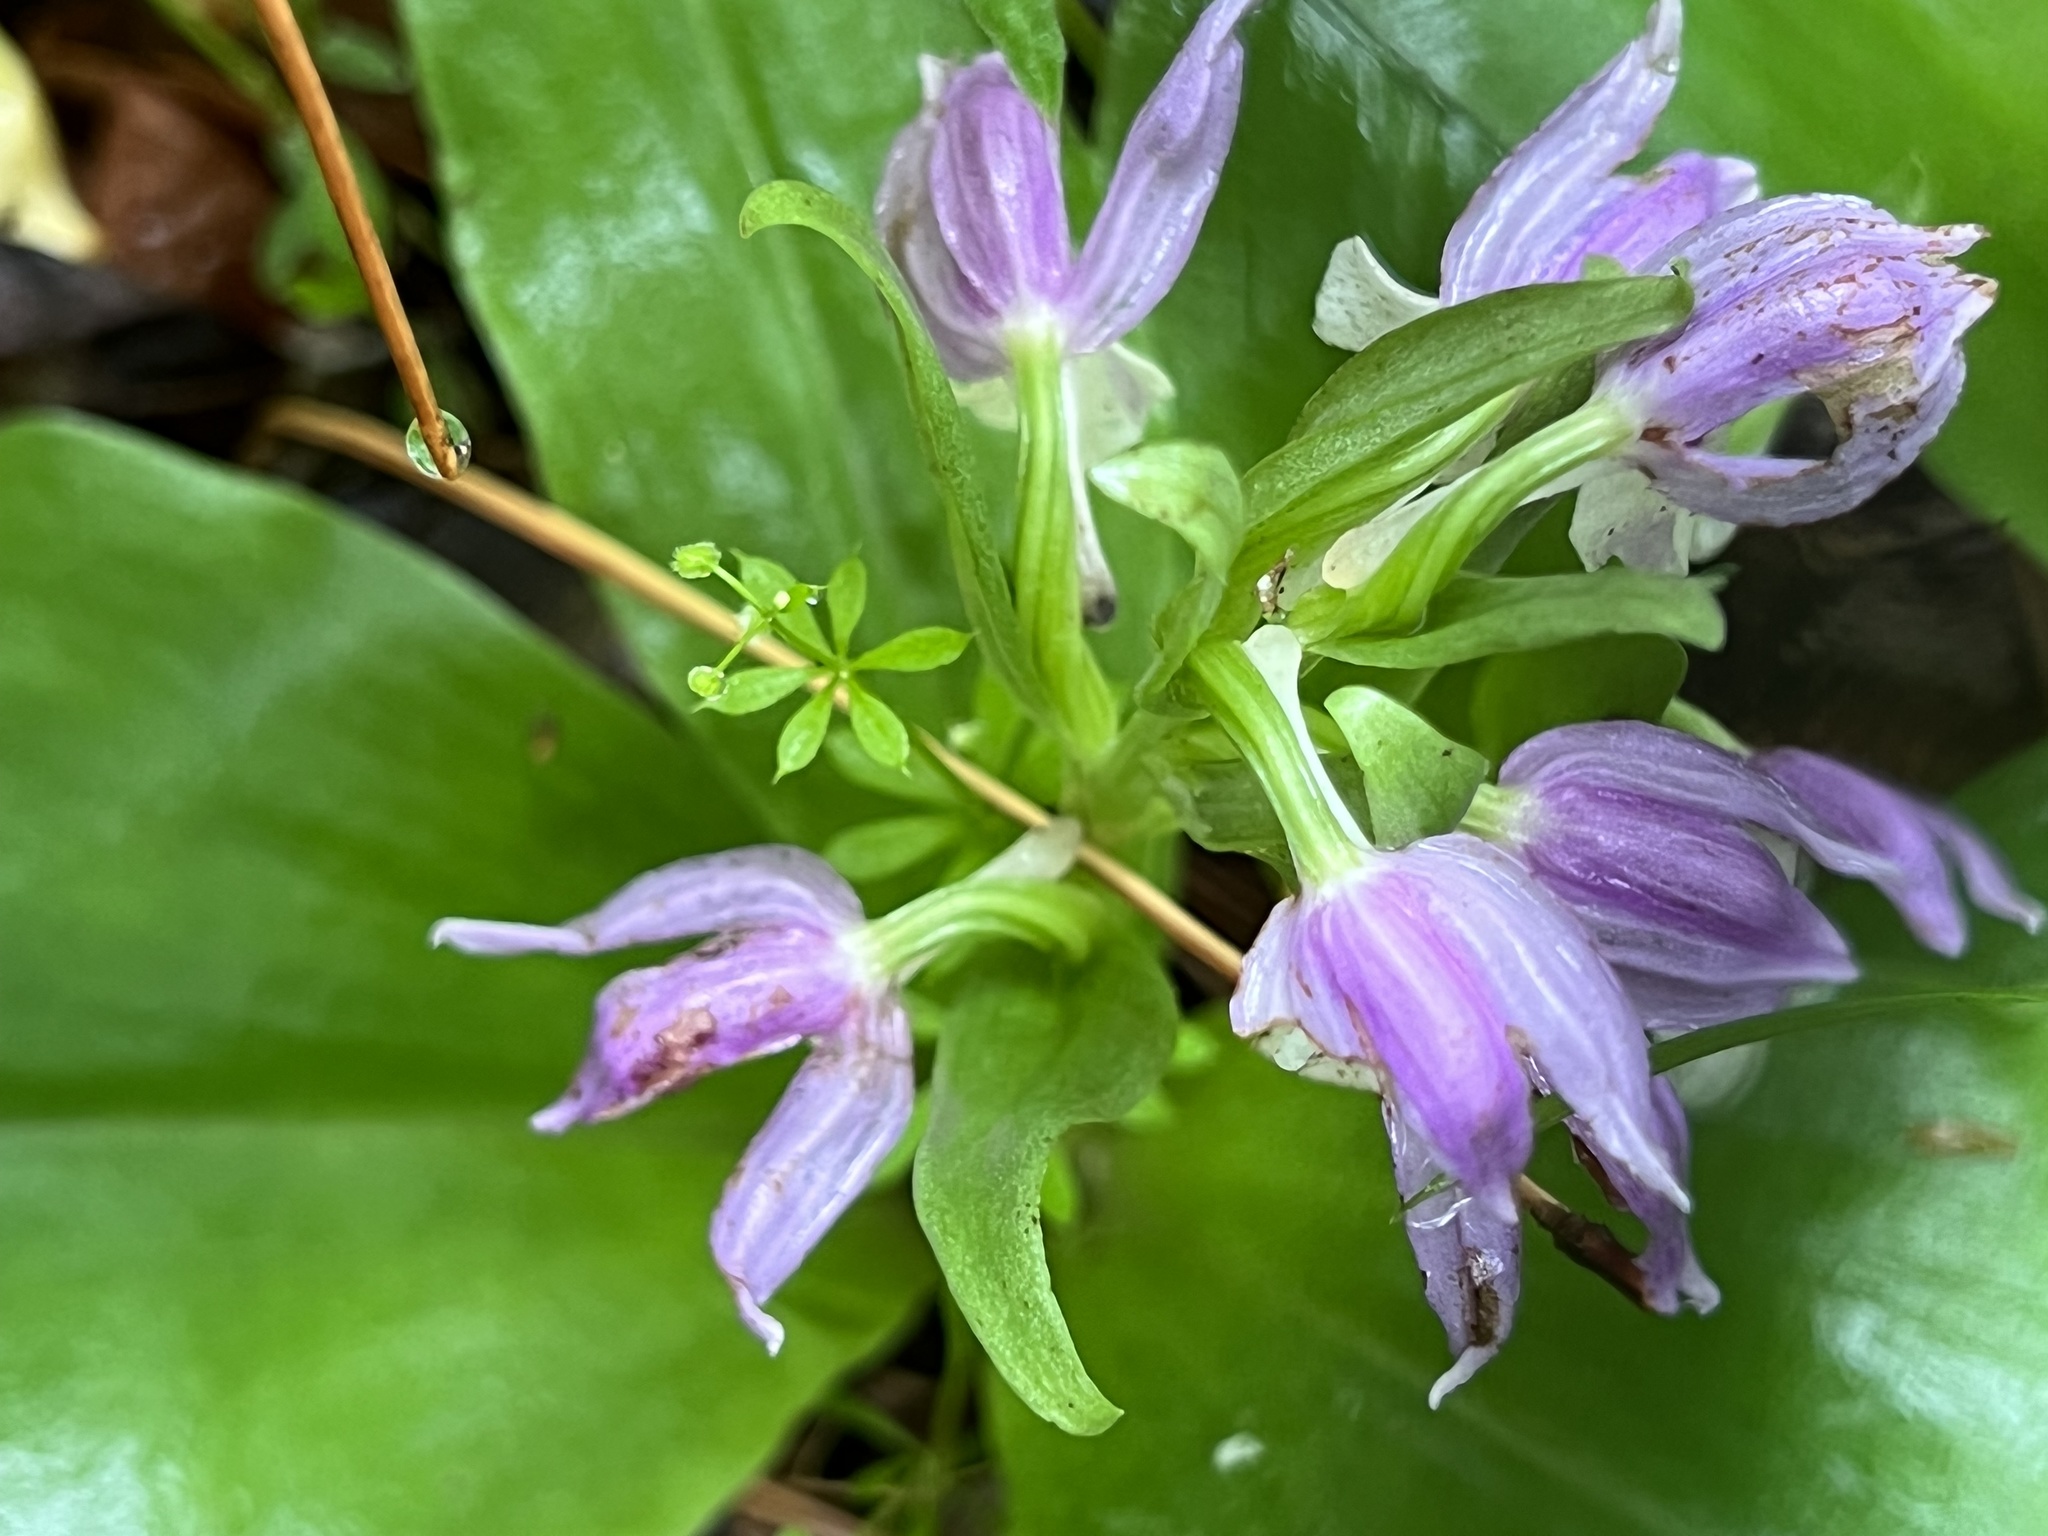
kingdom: Plantae
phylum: Tracheophyta
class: Liliopsida
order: Asparagales
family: Orchidaceae
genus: Galearis
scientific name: Galearis spectabilis
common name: Purple-hooded orchis
